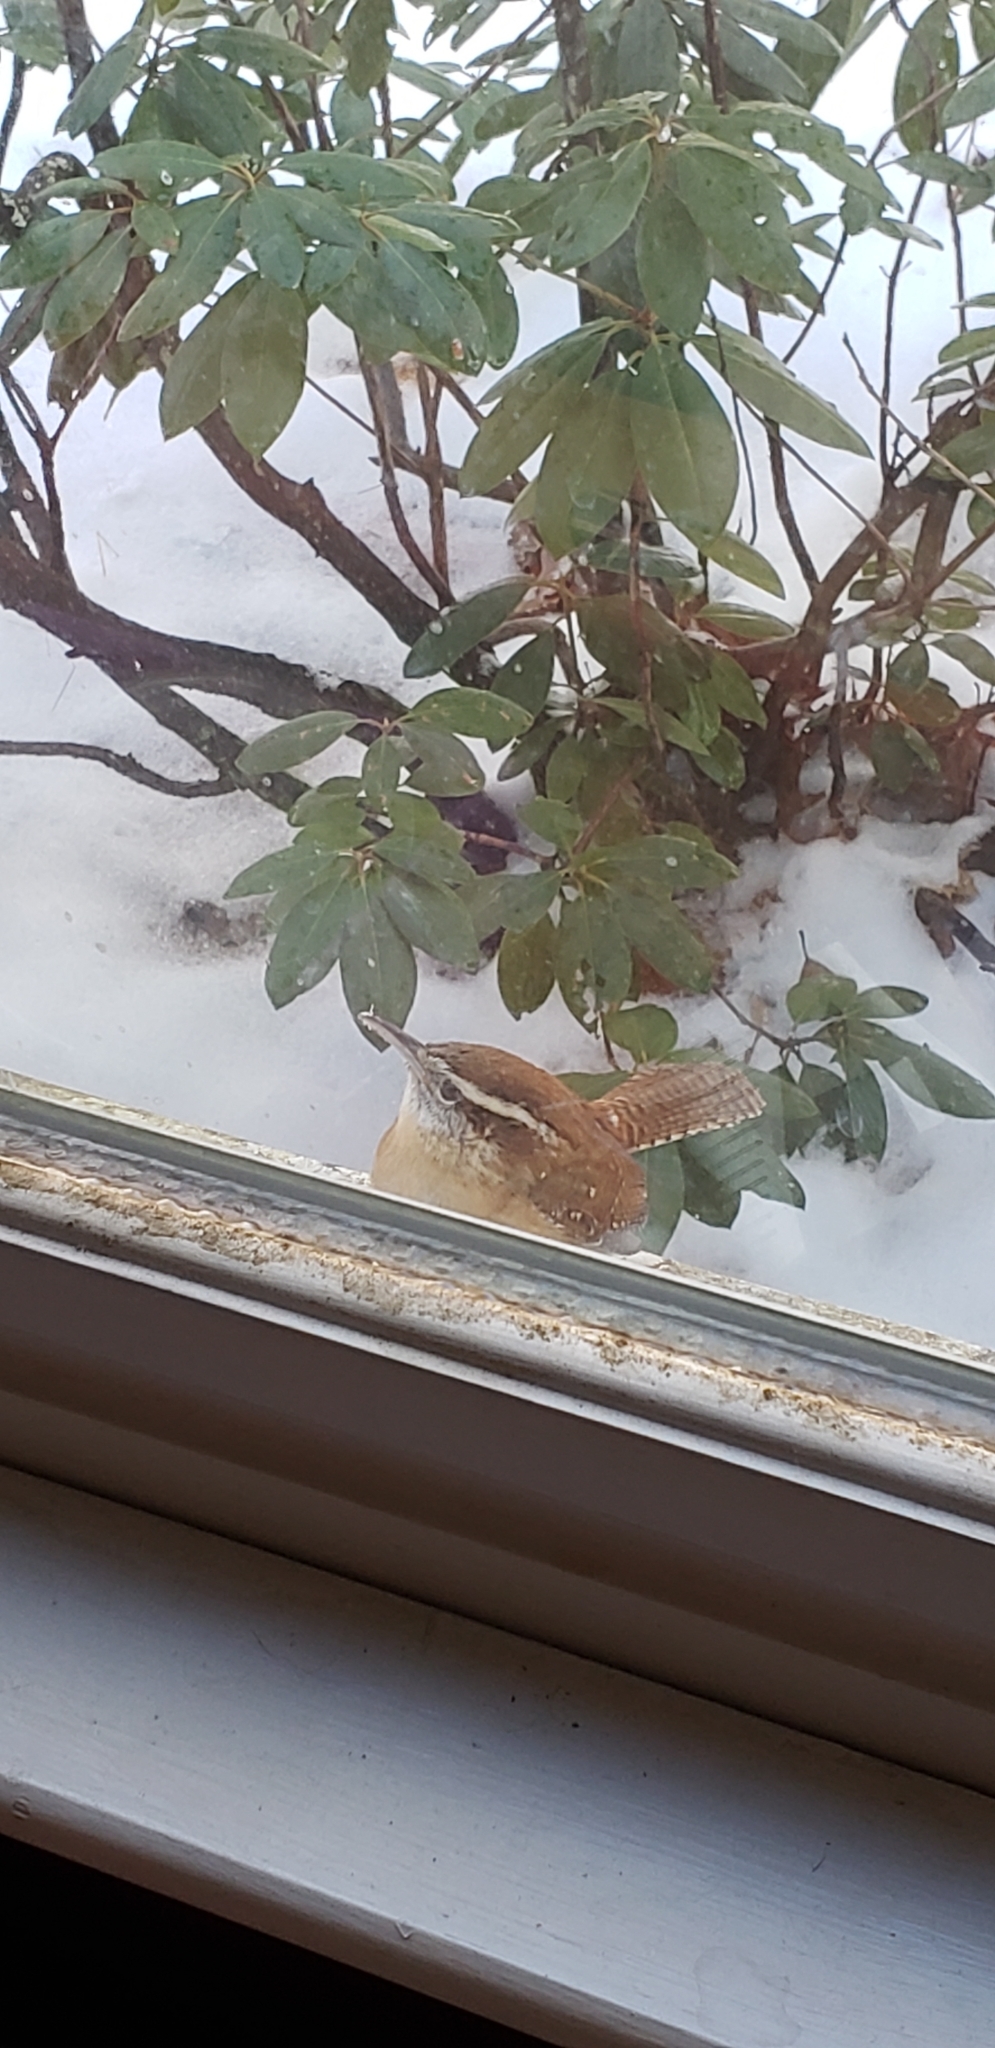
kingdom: Animalia
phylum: Chordata
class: Aves
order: Passeriformes
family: Troglodytidae
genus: Thryothorus
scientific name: Thryothorus ludovicianus
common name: Carolina wren
